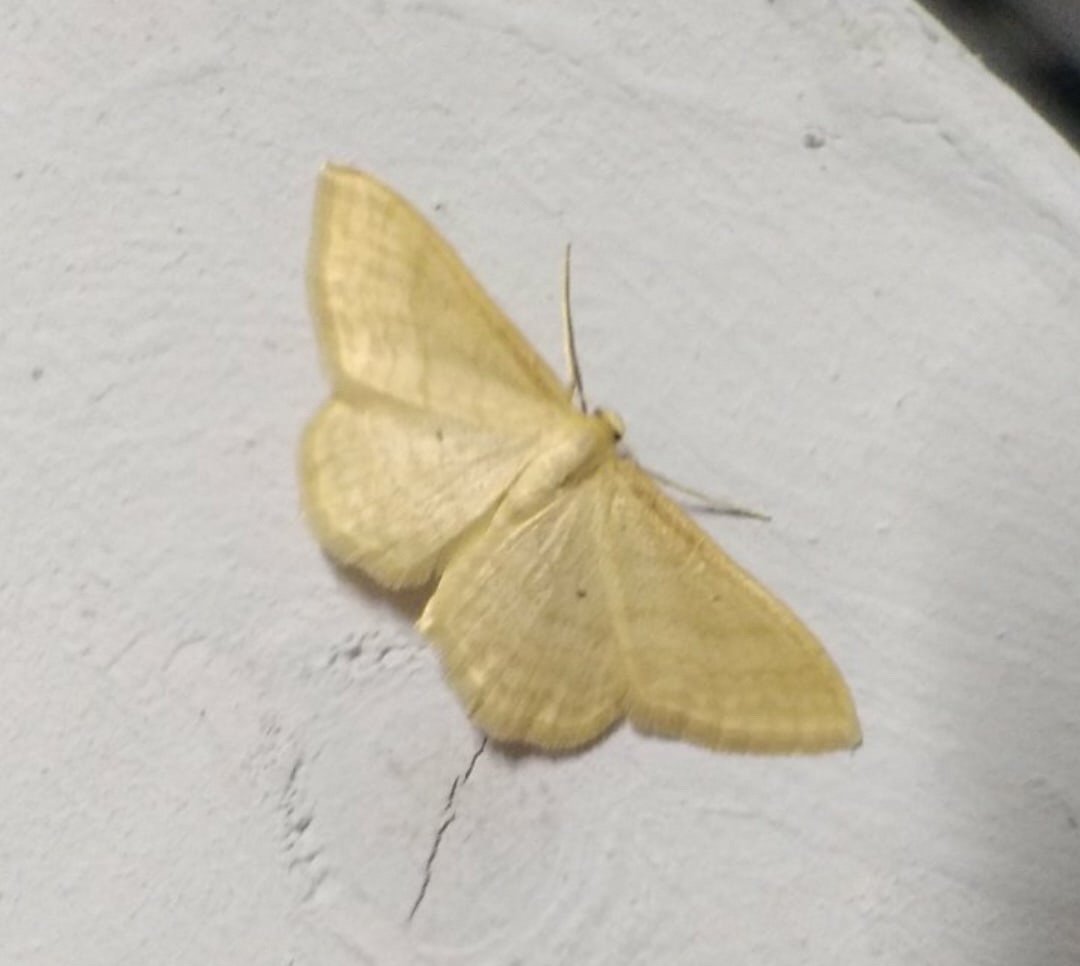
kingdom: Animalia
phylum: Arthropoda
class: Insecta
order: Lepidoptera
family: Geometridae
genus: Idaea
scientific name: Idaea rufaria
